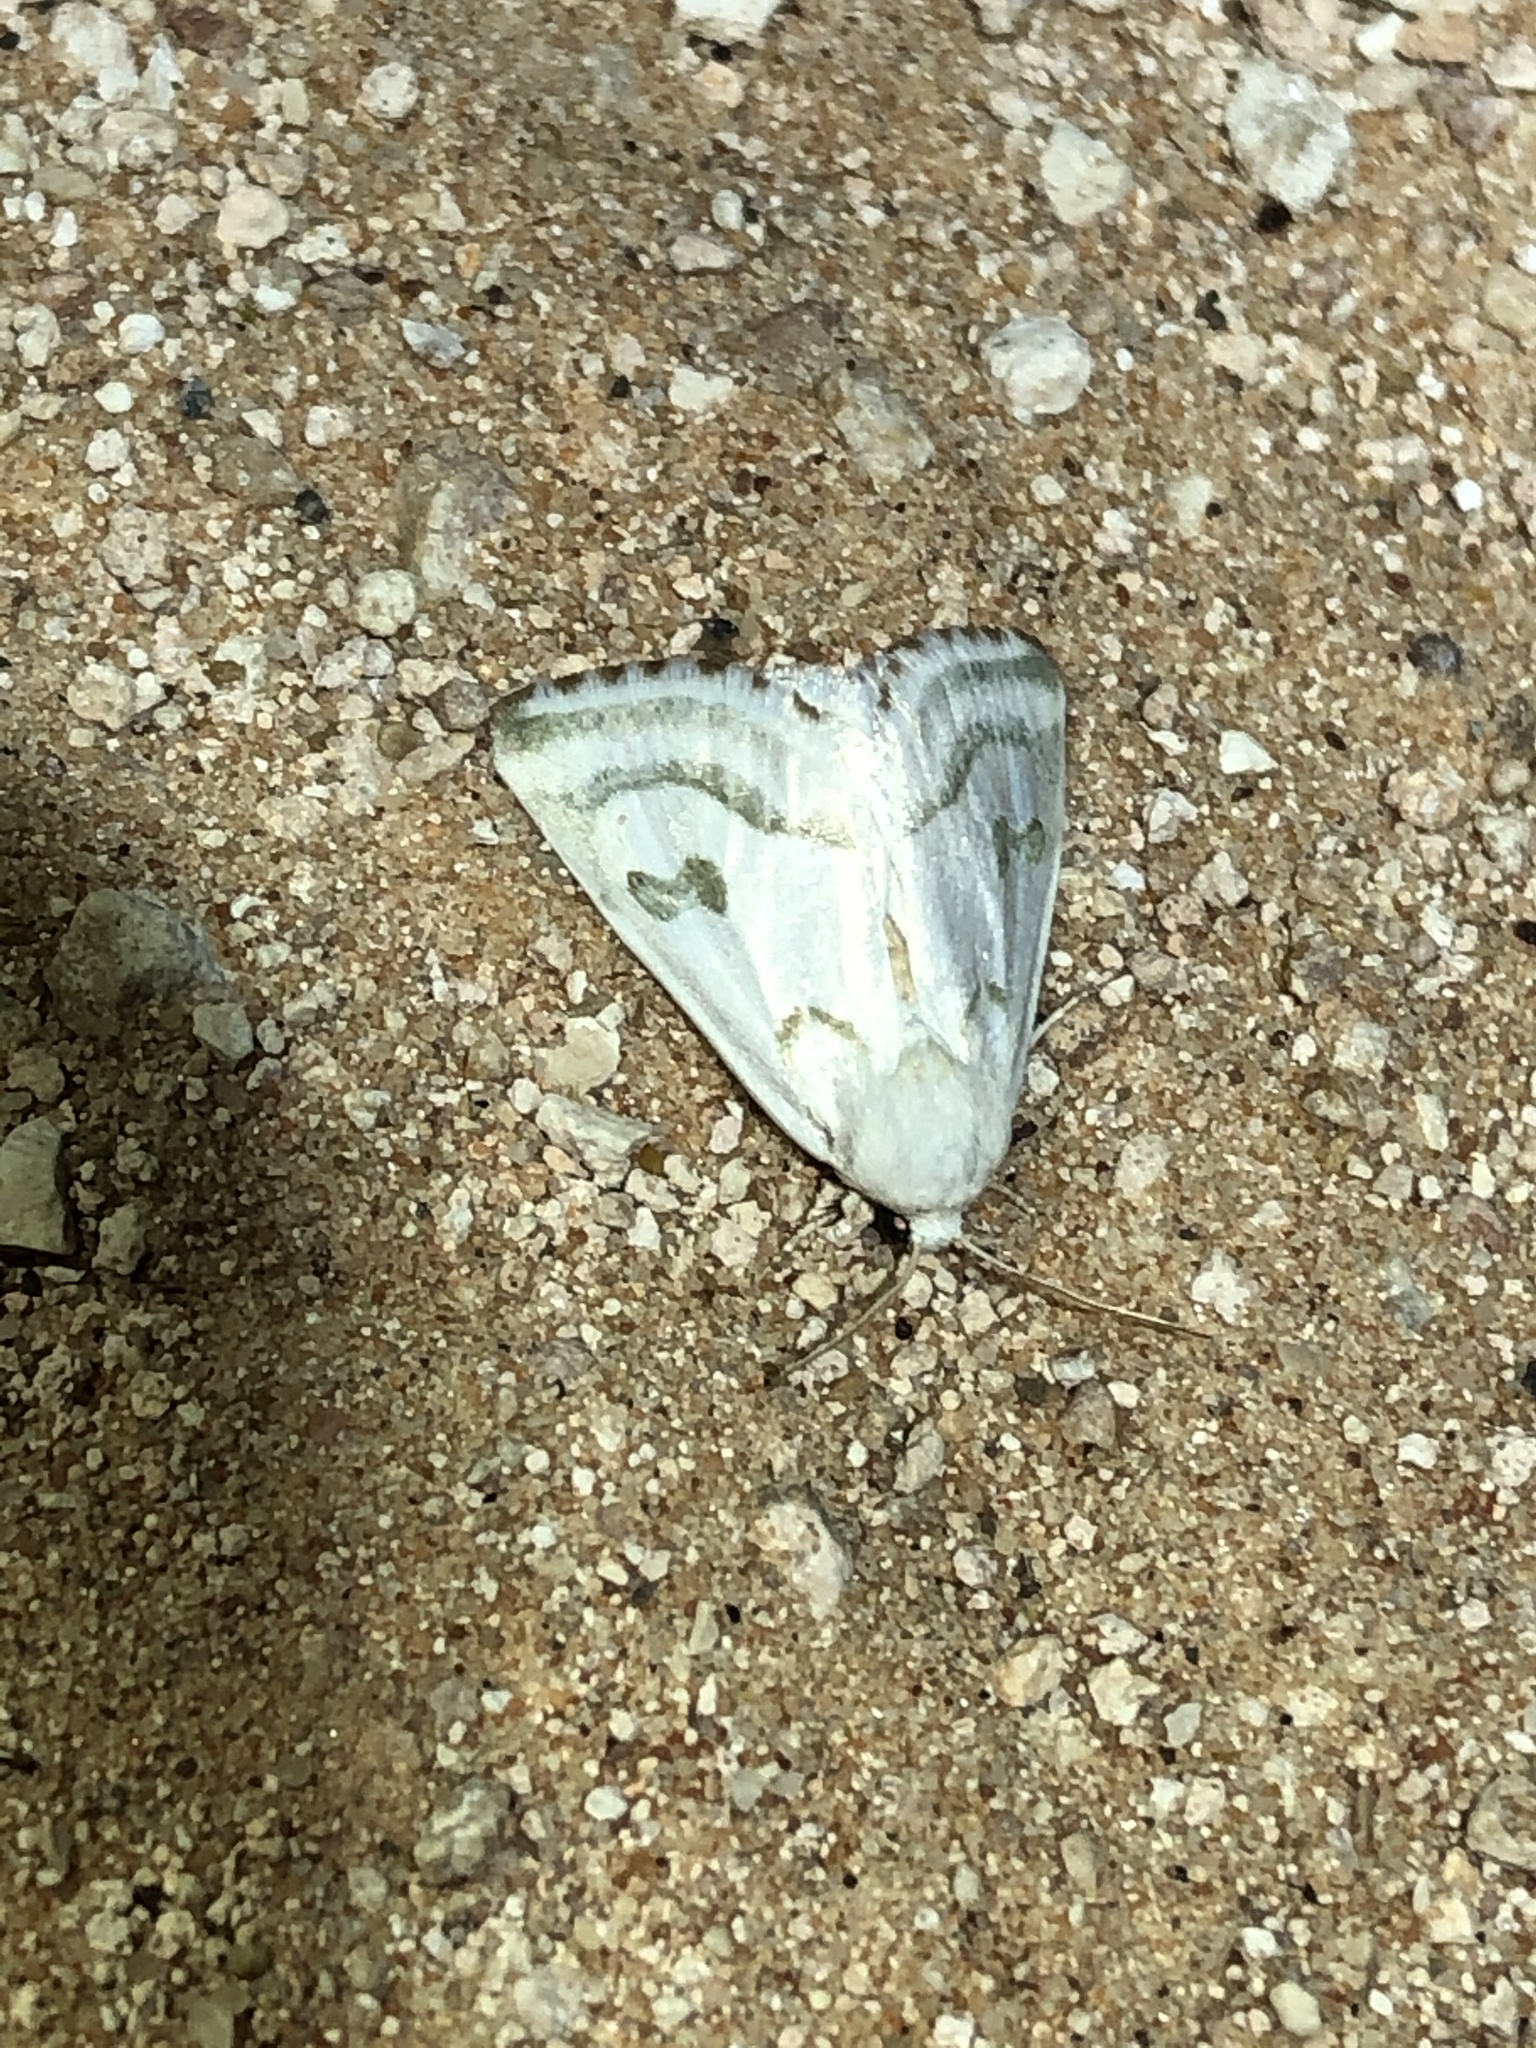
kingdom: Animalia
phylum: Arthropoda
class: Insecta
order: Lepidoptera
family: Noctuidae
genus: Schinia
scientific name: Schinia reniformis
